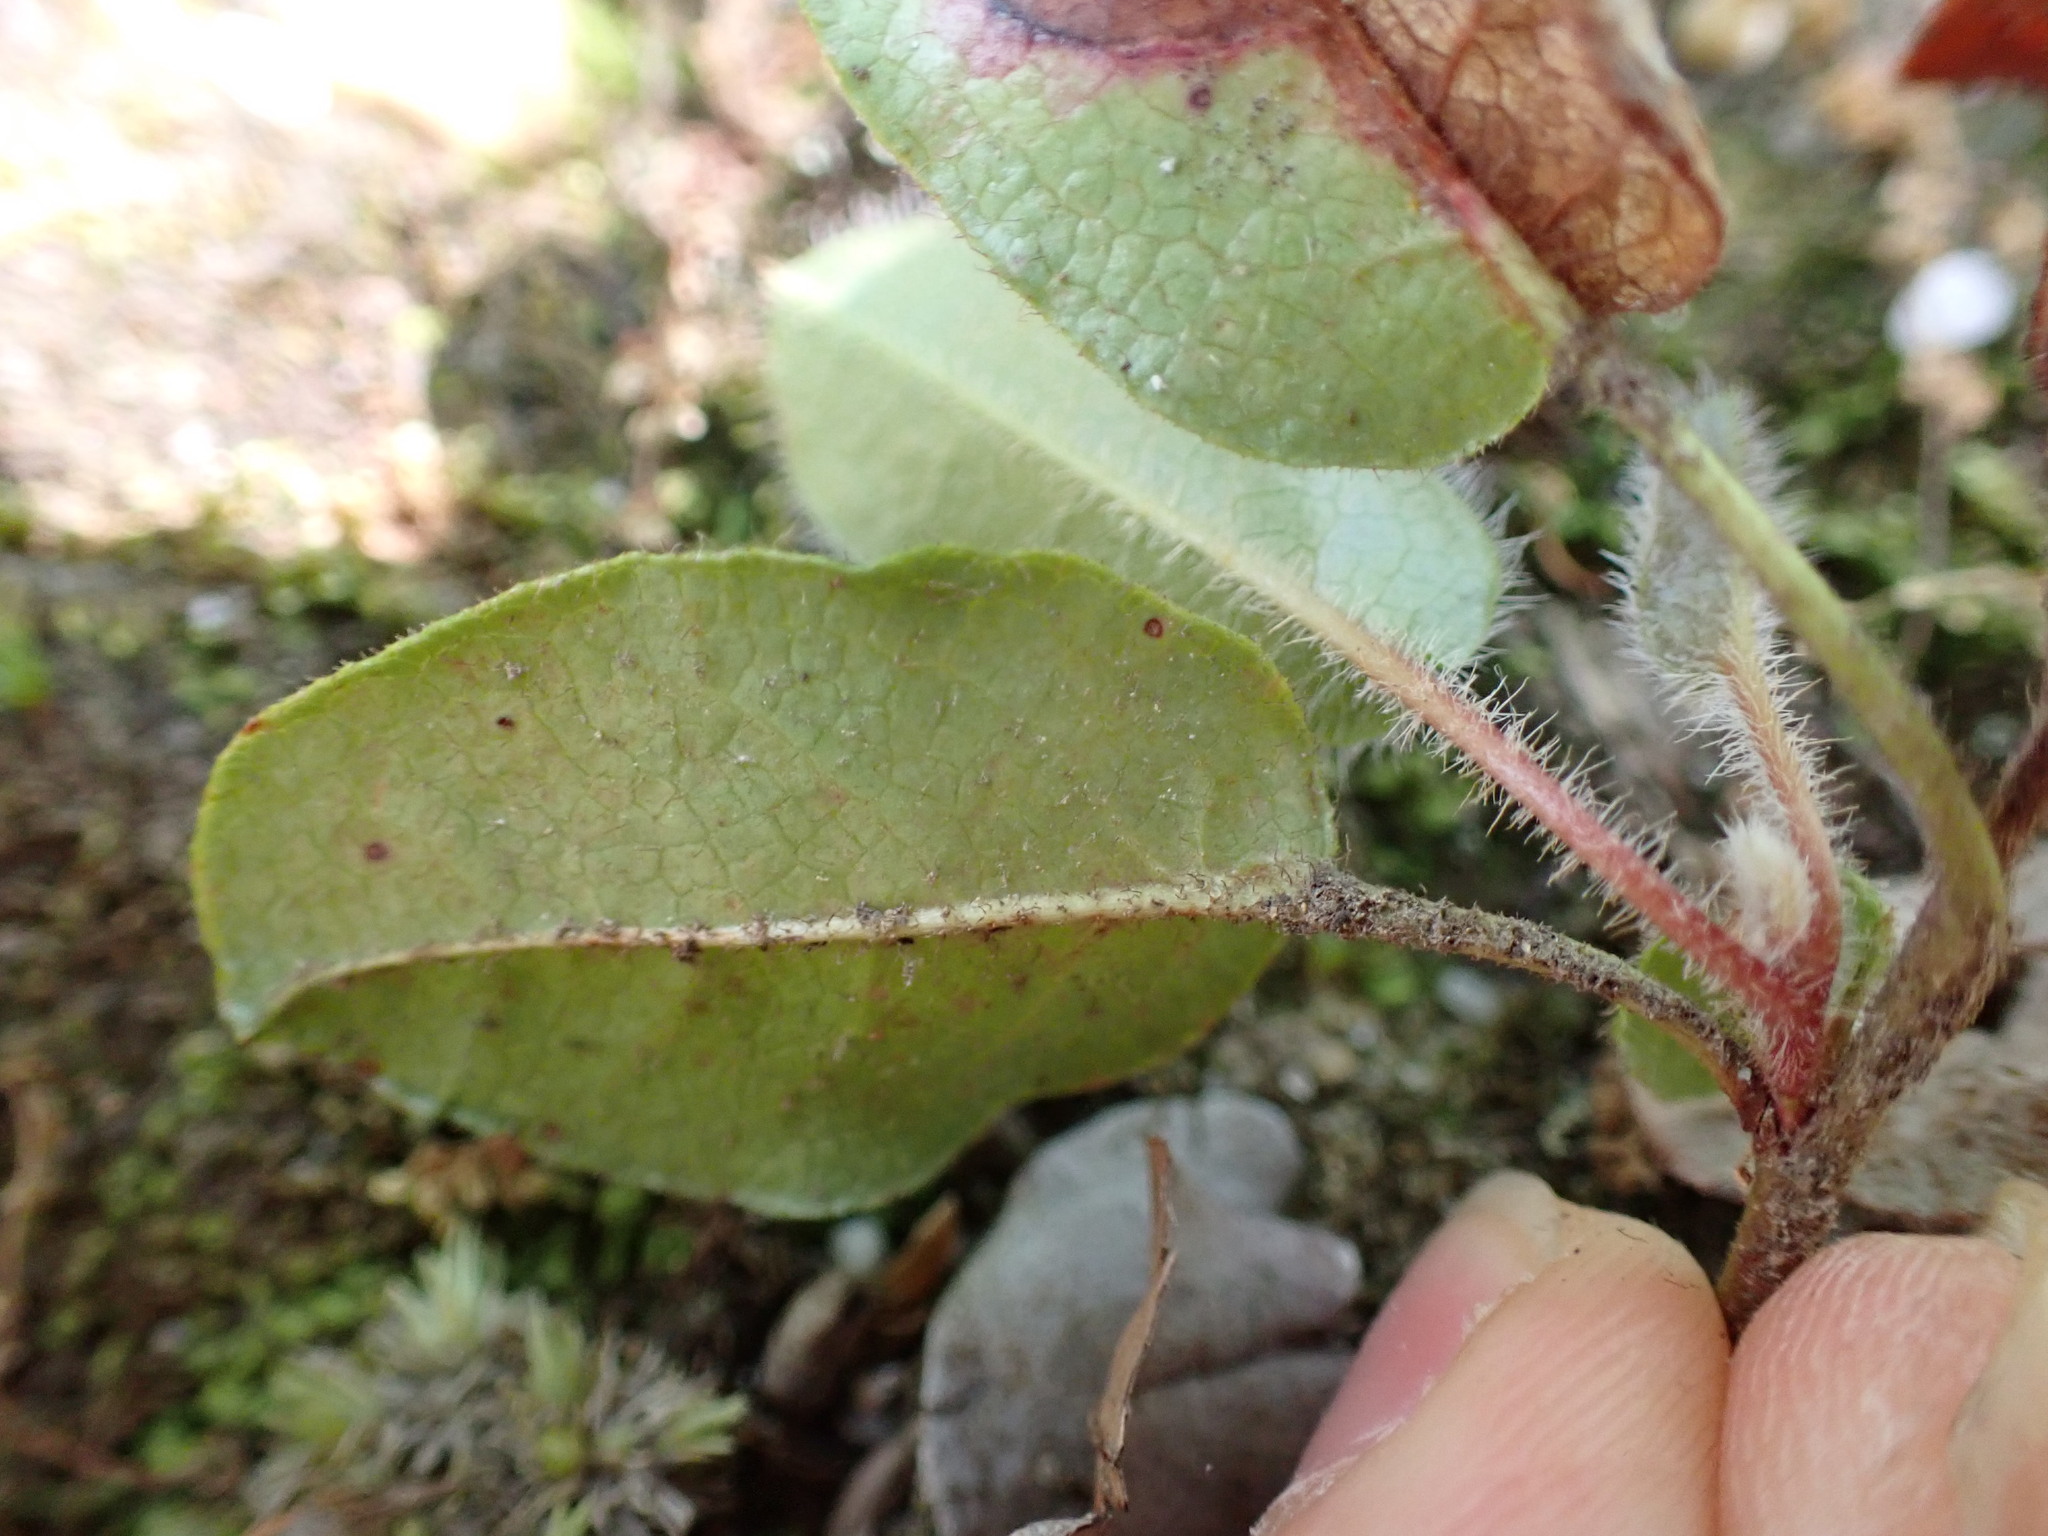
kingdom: Plantae
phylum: Tracheophyta
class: Magnoliopsida
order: Ericales
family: Ericaceae
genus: Epigaea
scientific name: Epigaea repens
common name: Gravelroot
